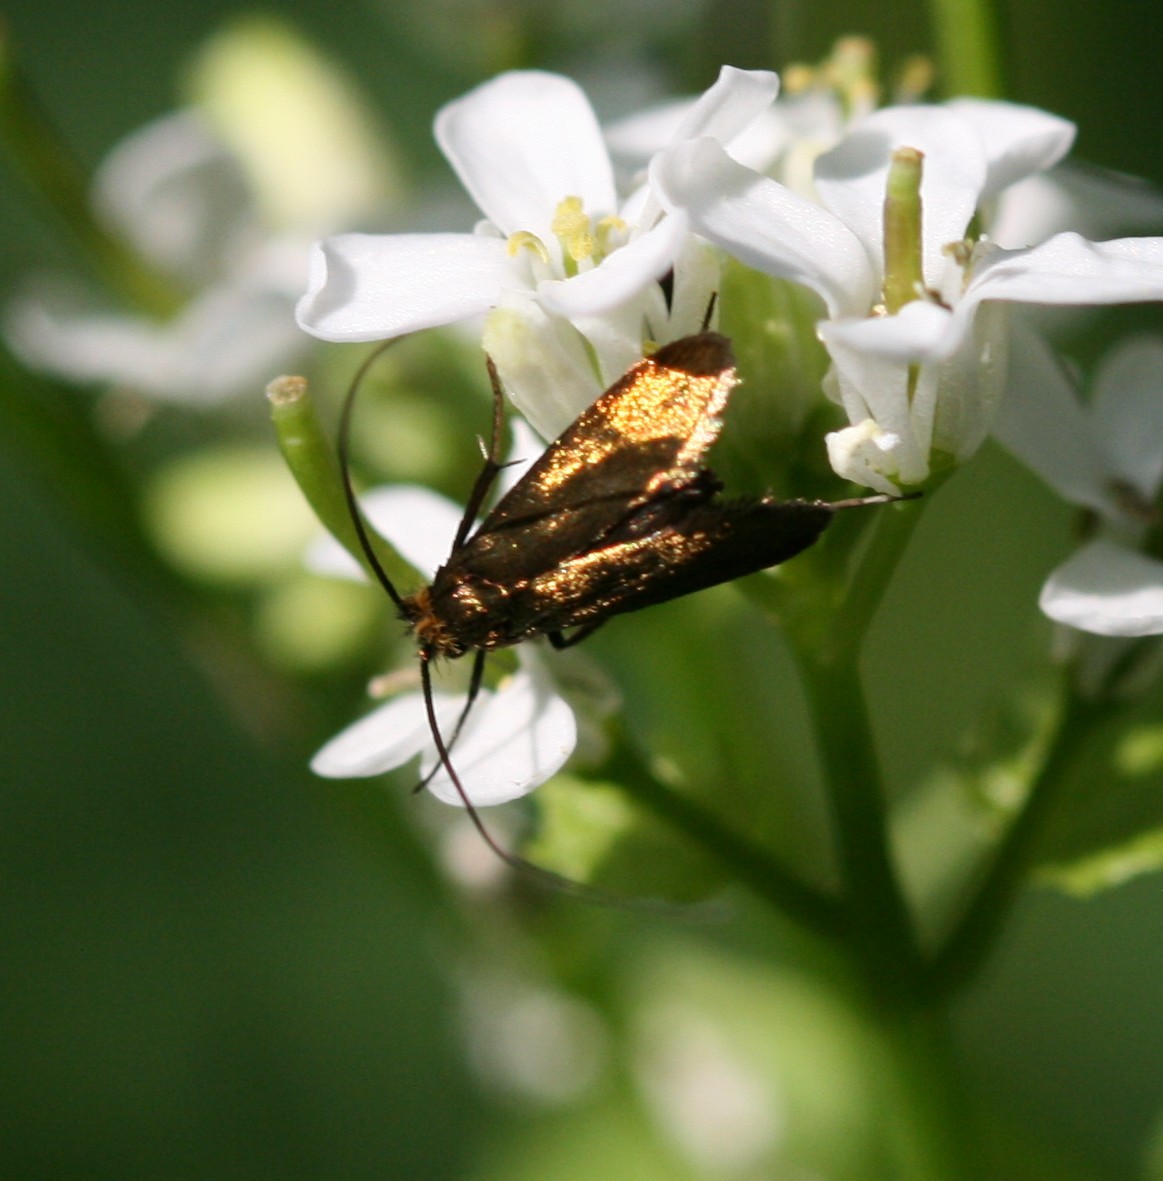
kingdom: Animalia
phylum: Arthropoda
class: Insecta
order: Lepidoptera
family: Adelidae
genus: Cauchas
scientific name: Cauchas rufimitrella
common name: Meadow long-horn
